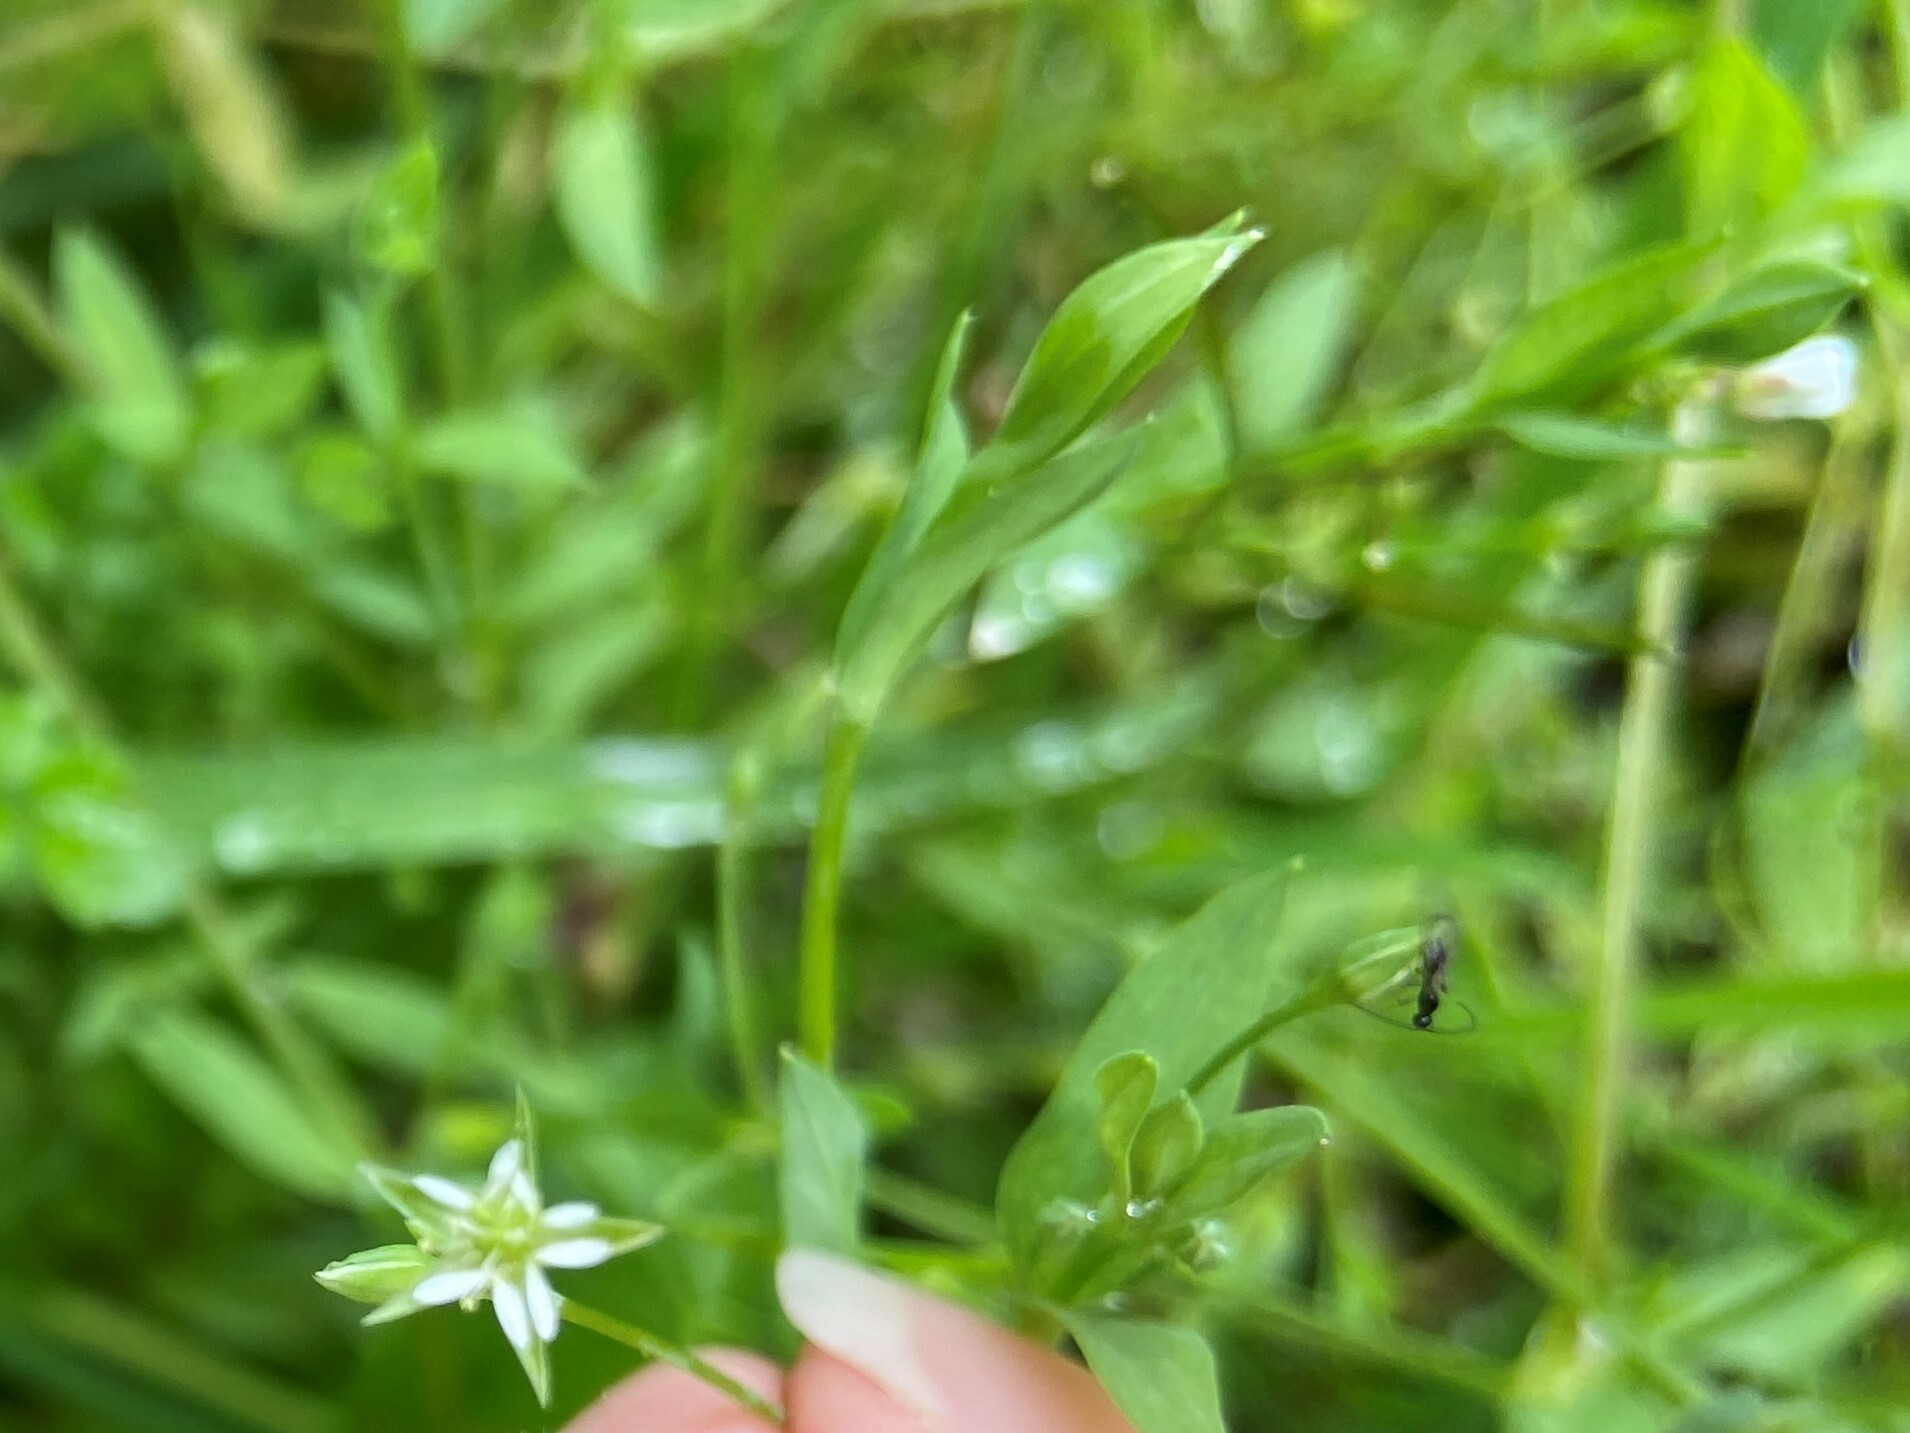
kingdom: Plantae
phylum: Tracheophyta
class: Magnoliopsida
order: Caryophyllales
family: Caryophyllaceae
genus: Stellaria
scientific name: Stellaria alsine
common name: Bog stitchwort
